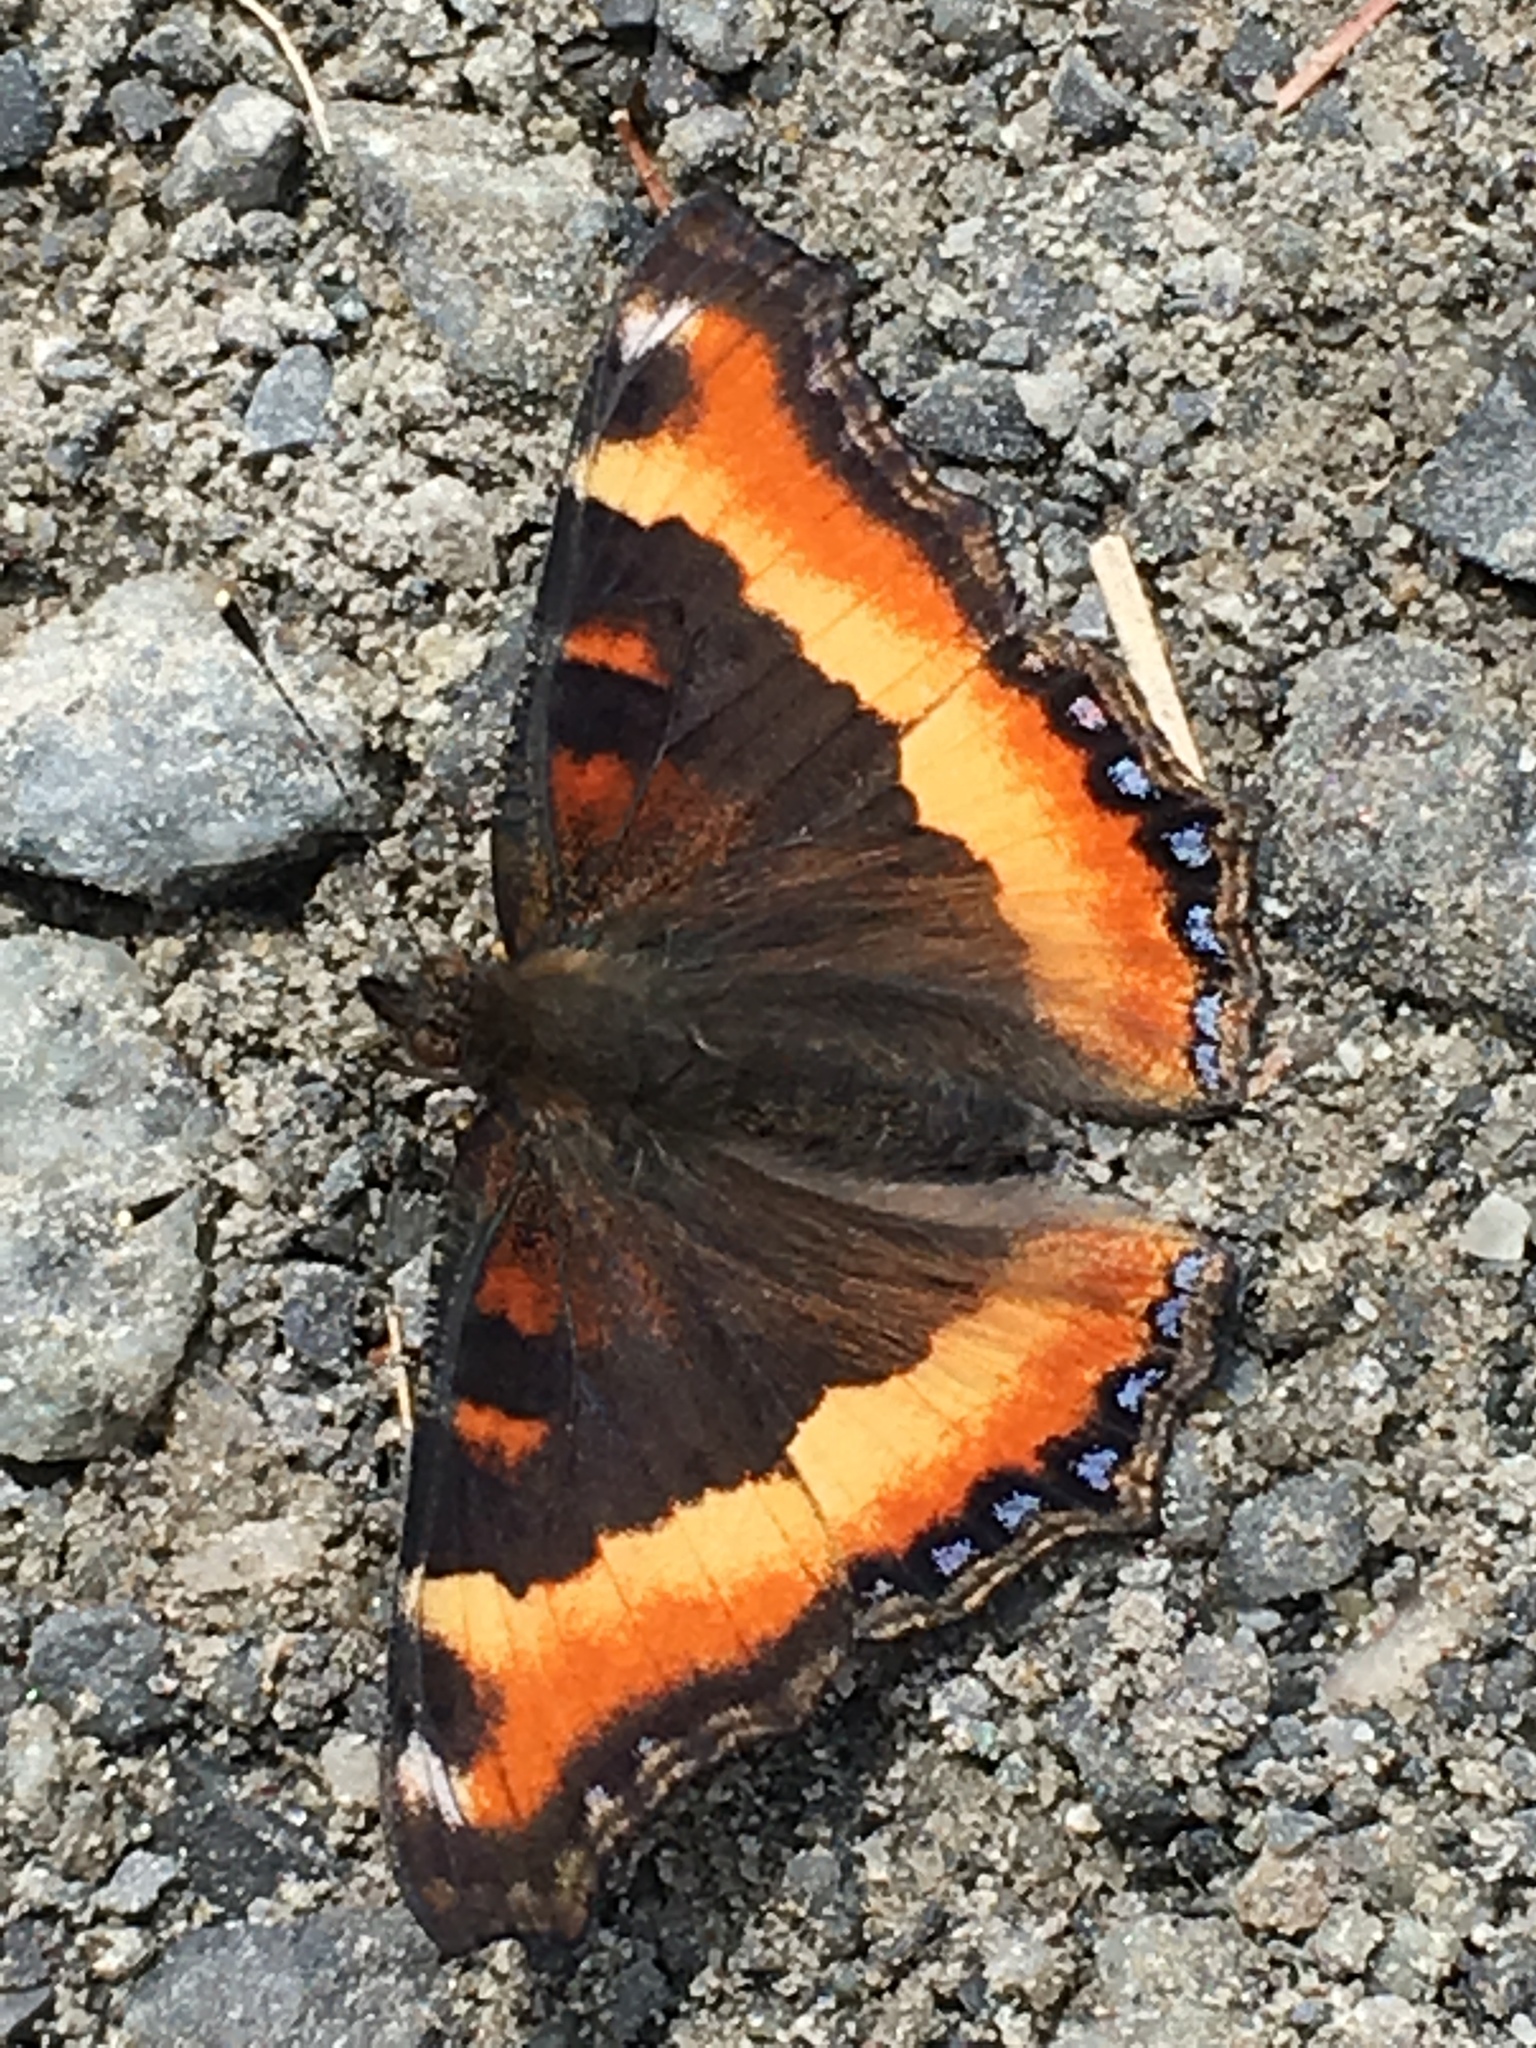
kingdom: Animalia
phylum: Arthropoda
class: Insecta
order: Lepidoptera
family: Nymphalidae
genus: Aglais
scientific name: Aglais milberti
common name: Milbert's tortoiseshell
